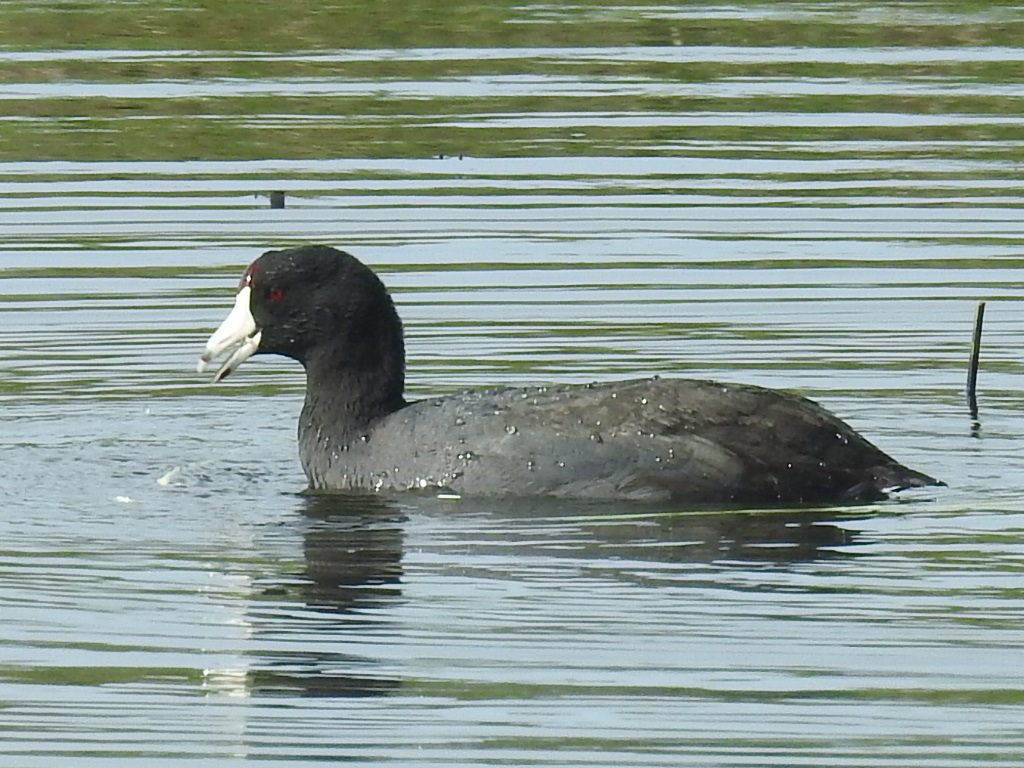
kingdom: Animalia
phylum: Chordata
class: Aves
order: Gruiformes
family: Rallidae
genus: Fulica
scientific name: Fulica americana
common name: American coot
